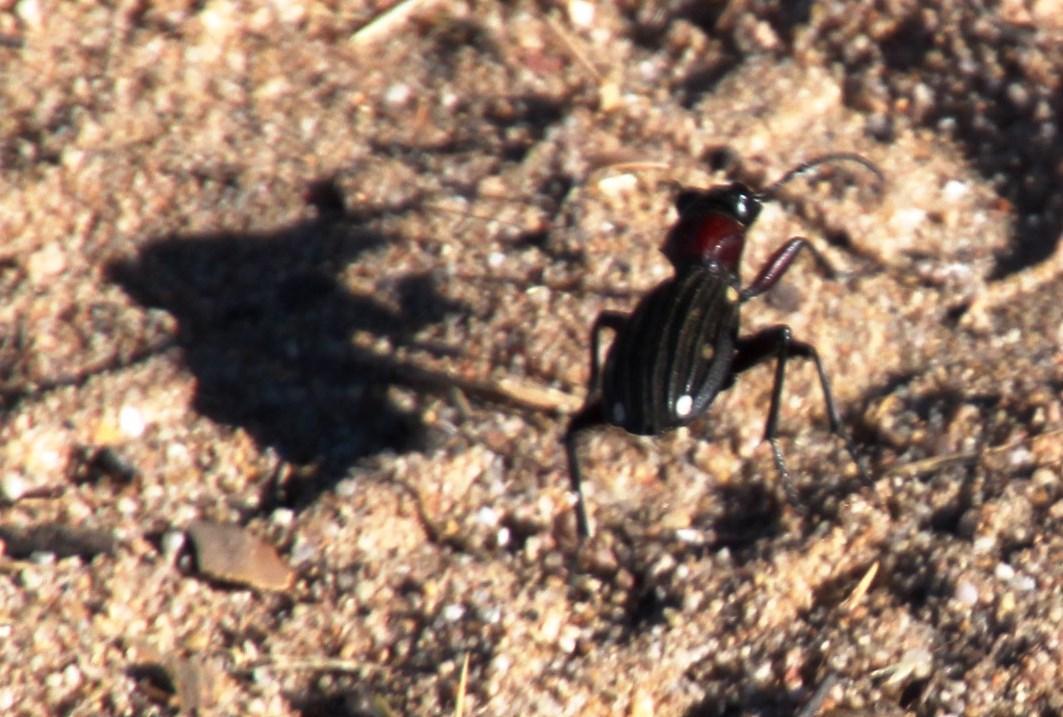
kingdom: Animalia
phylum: Arthropoda
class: Insecta
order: Coleoptera
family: Carabidae
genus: Anthia
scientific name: Anthia decemguttata
